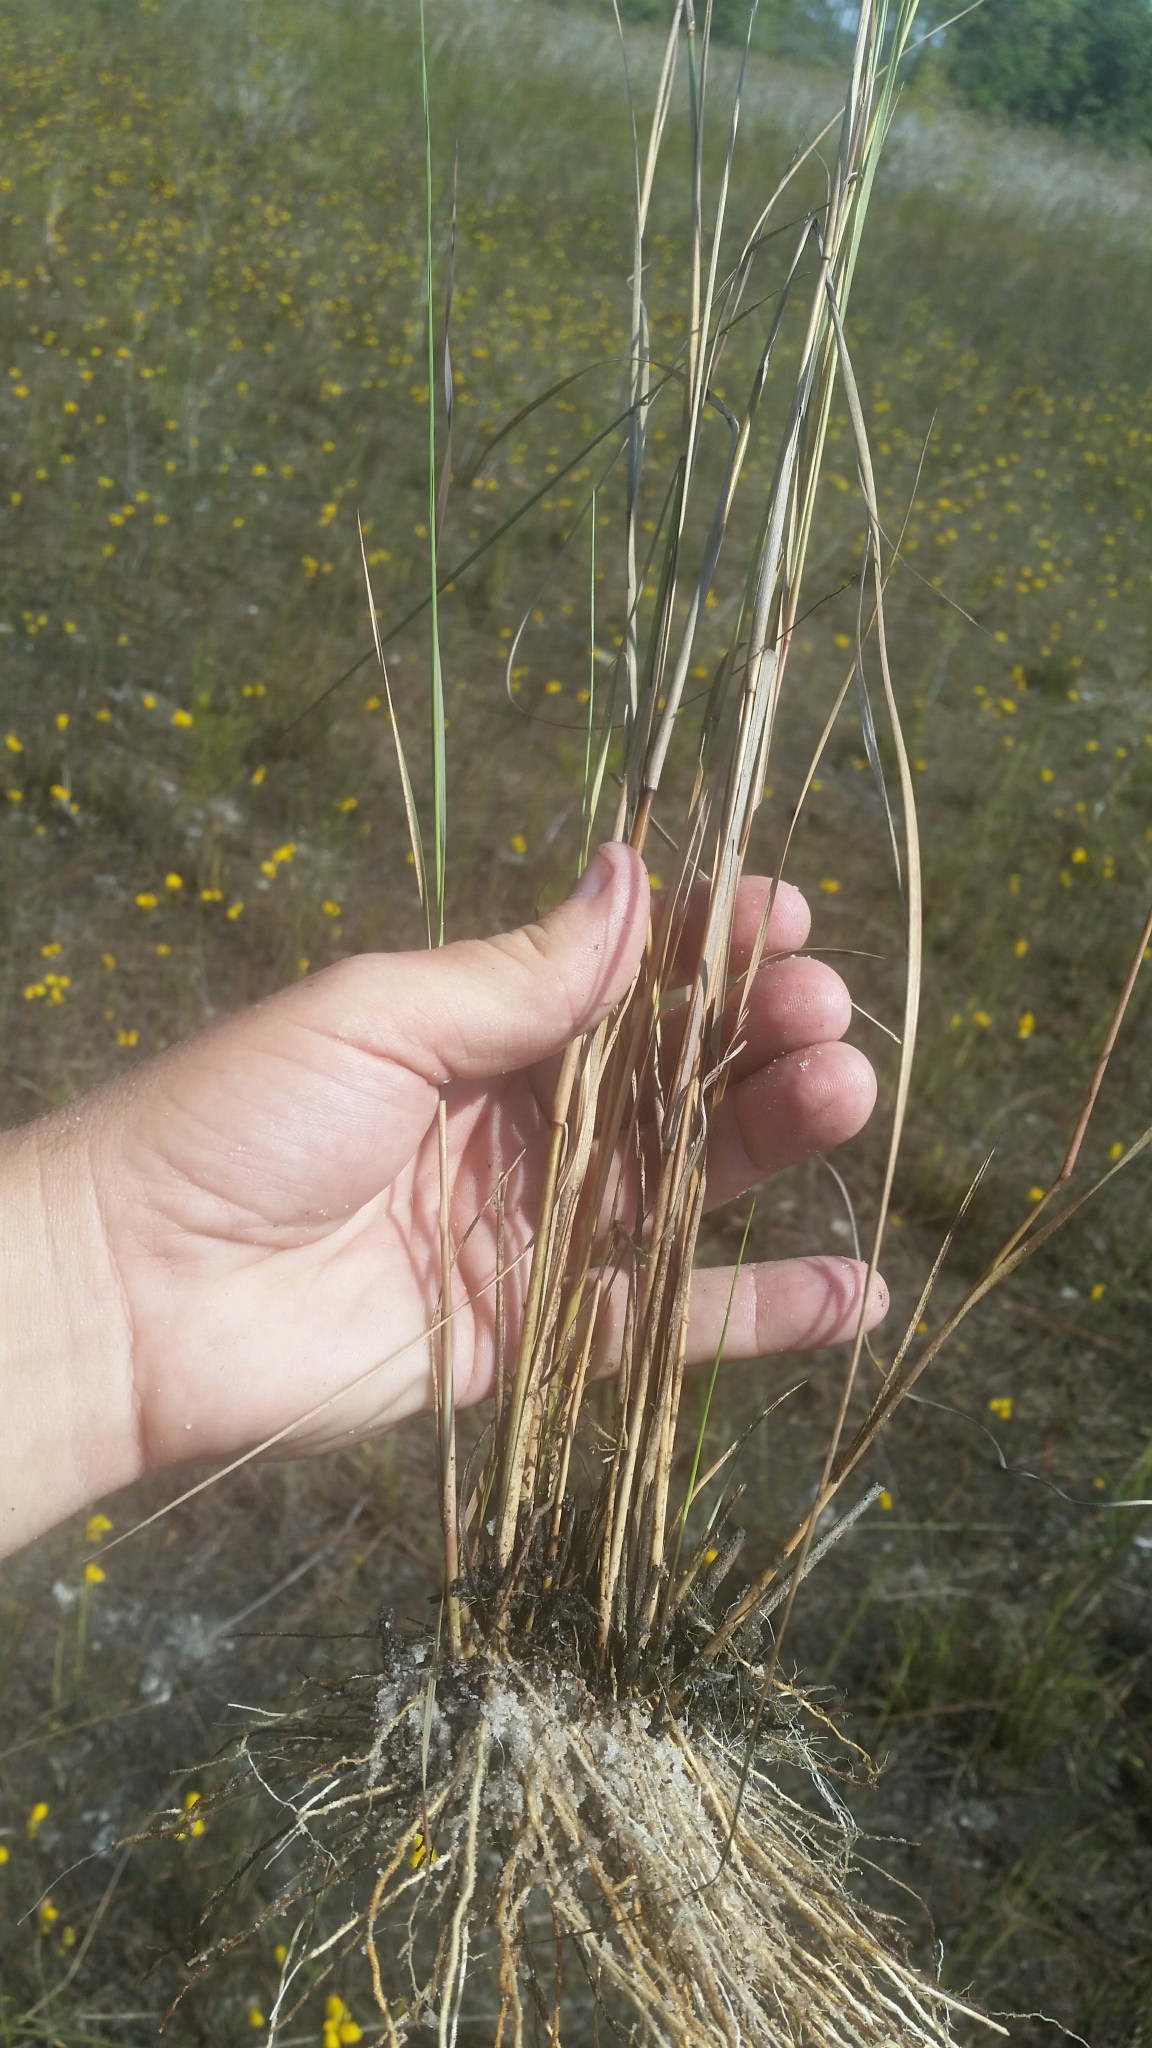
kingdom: Plantae
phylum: Tracheophyta
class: Liliopsida
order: Poales
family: Poaceae
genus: Aristida
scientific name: Aristida palustris
